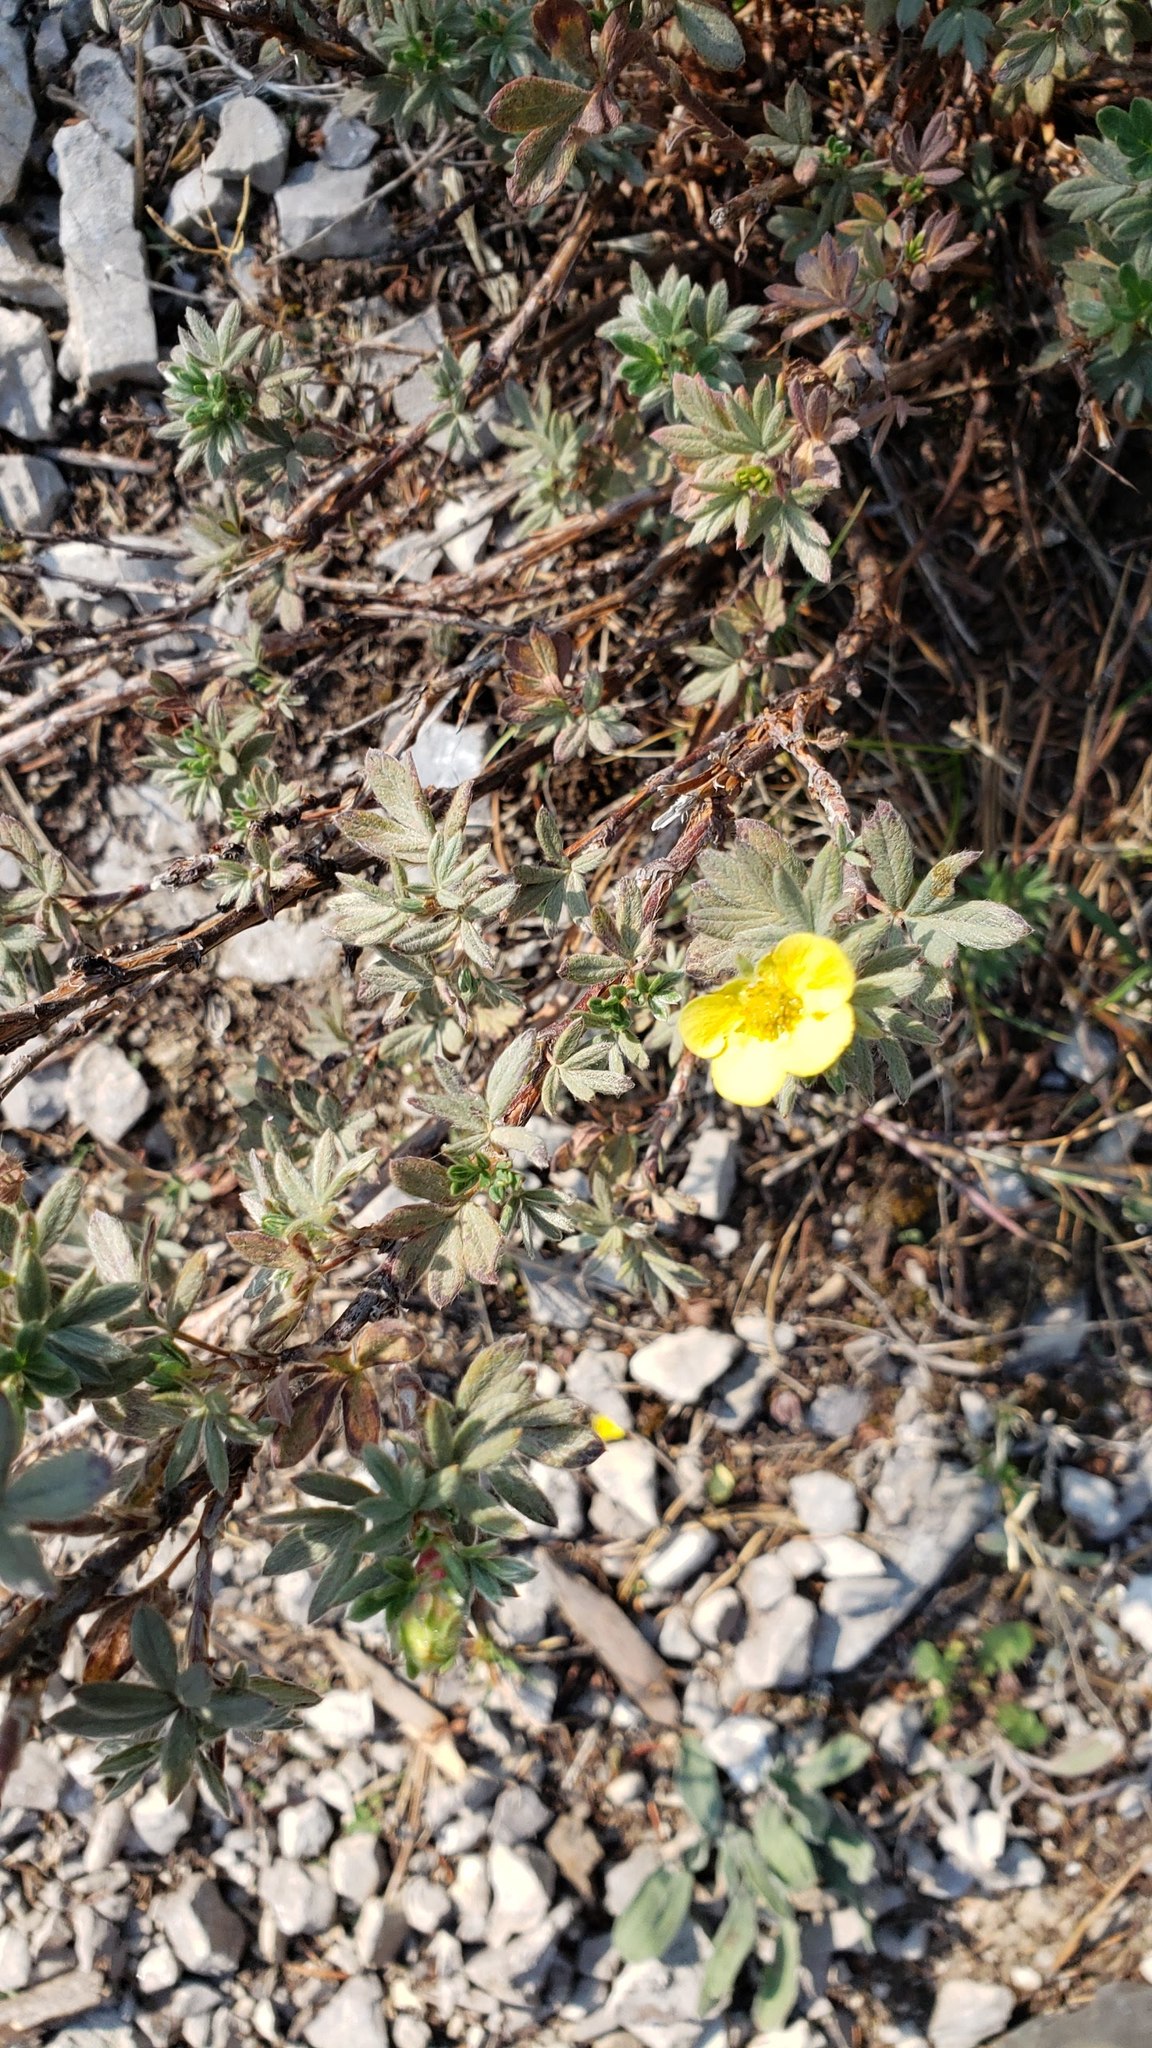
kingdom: Plantae
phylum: Tracheophyta
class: Magnoliopsida
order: Rosales
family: Rosaceae
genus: Dasiphora
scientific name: Dasiphora fruticosa
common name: Shrubby cinquefoil
